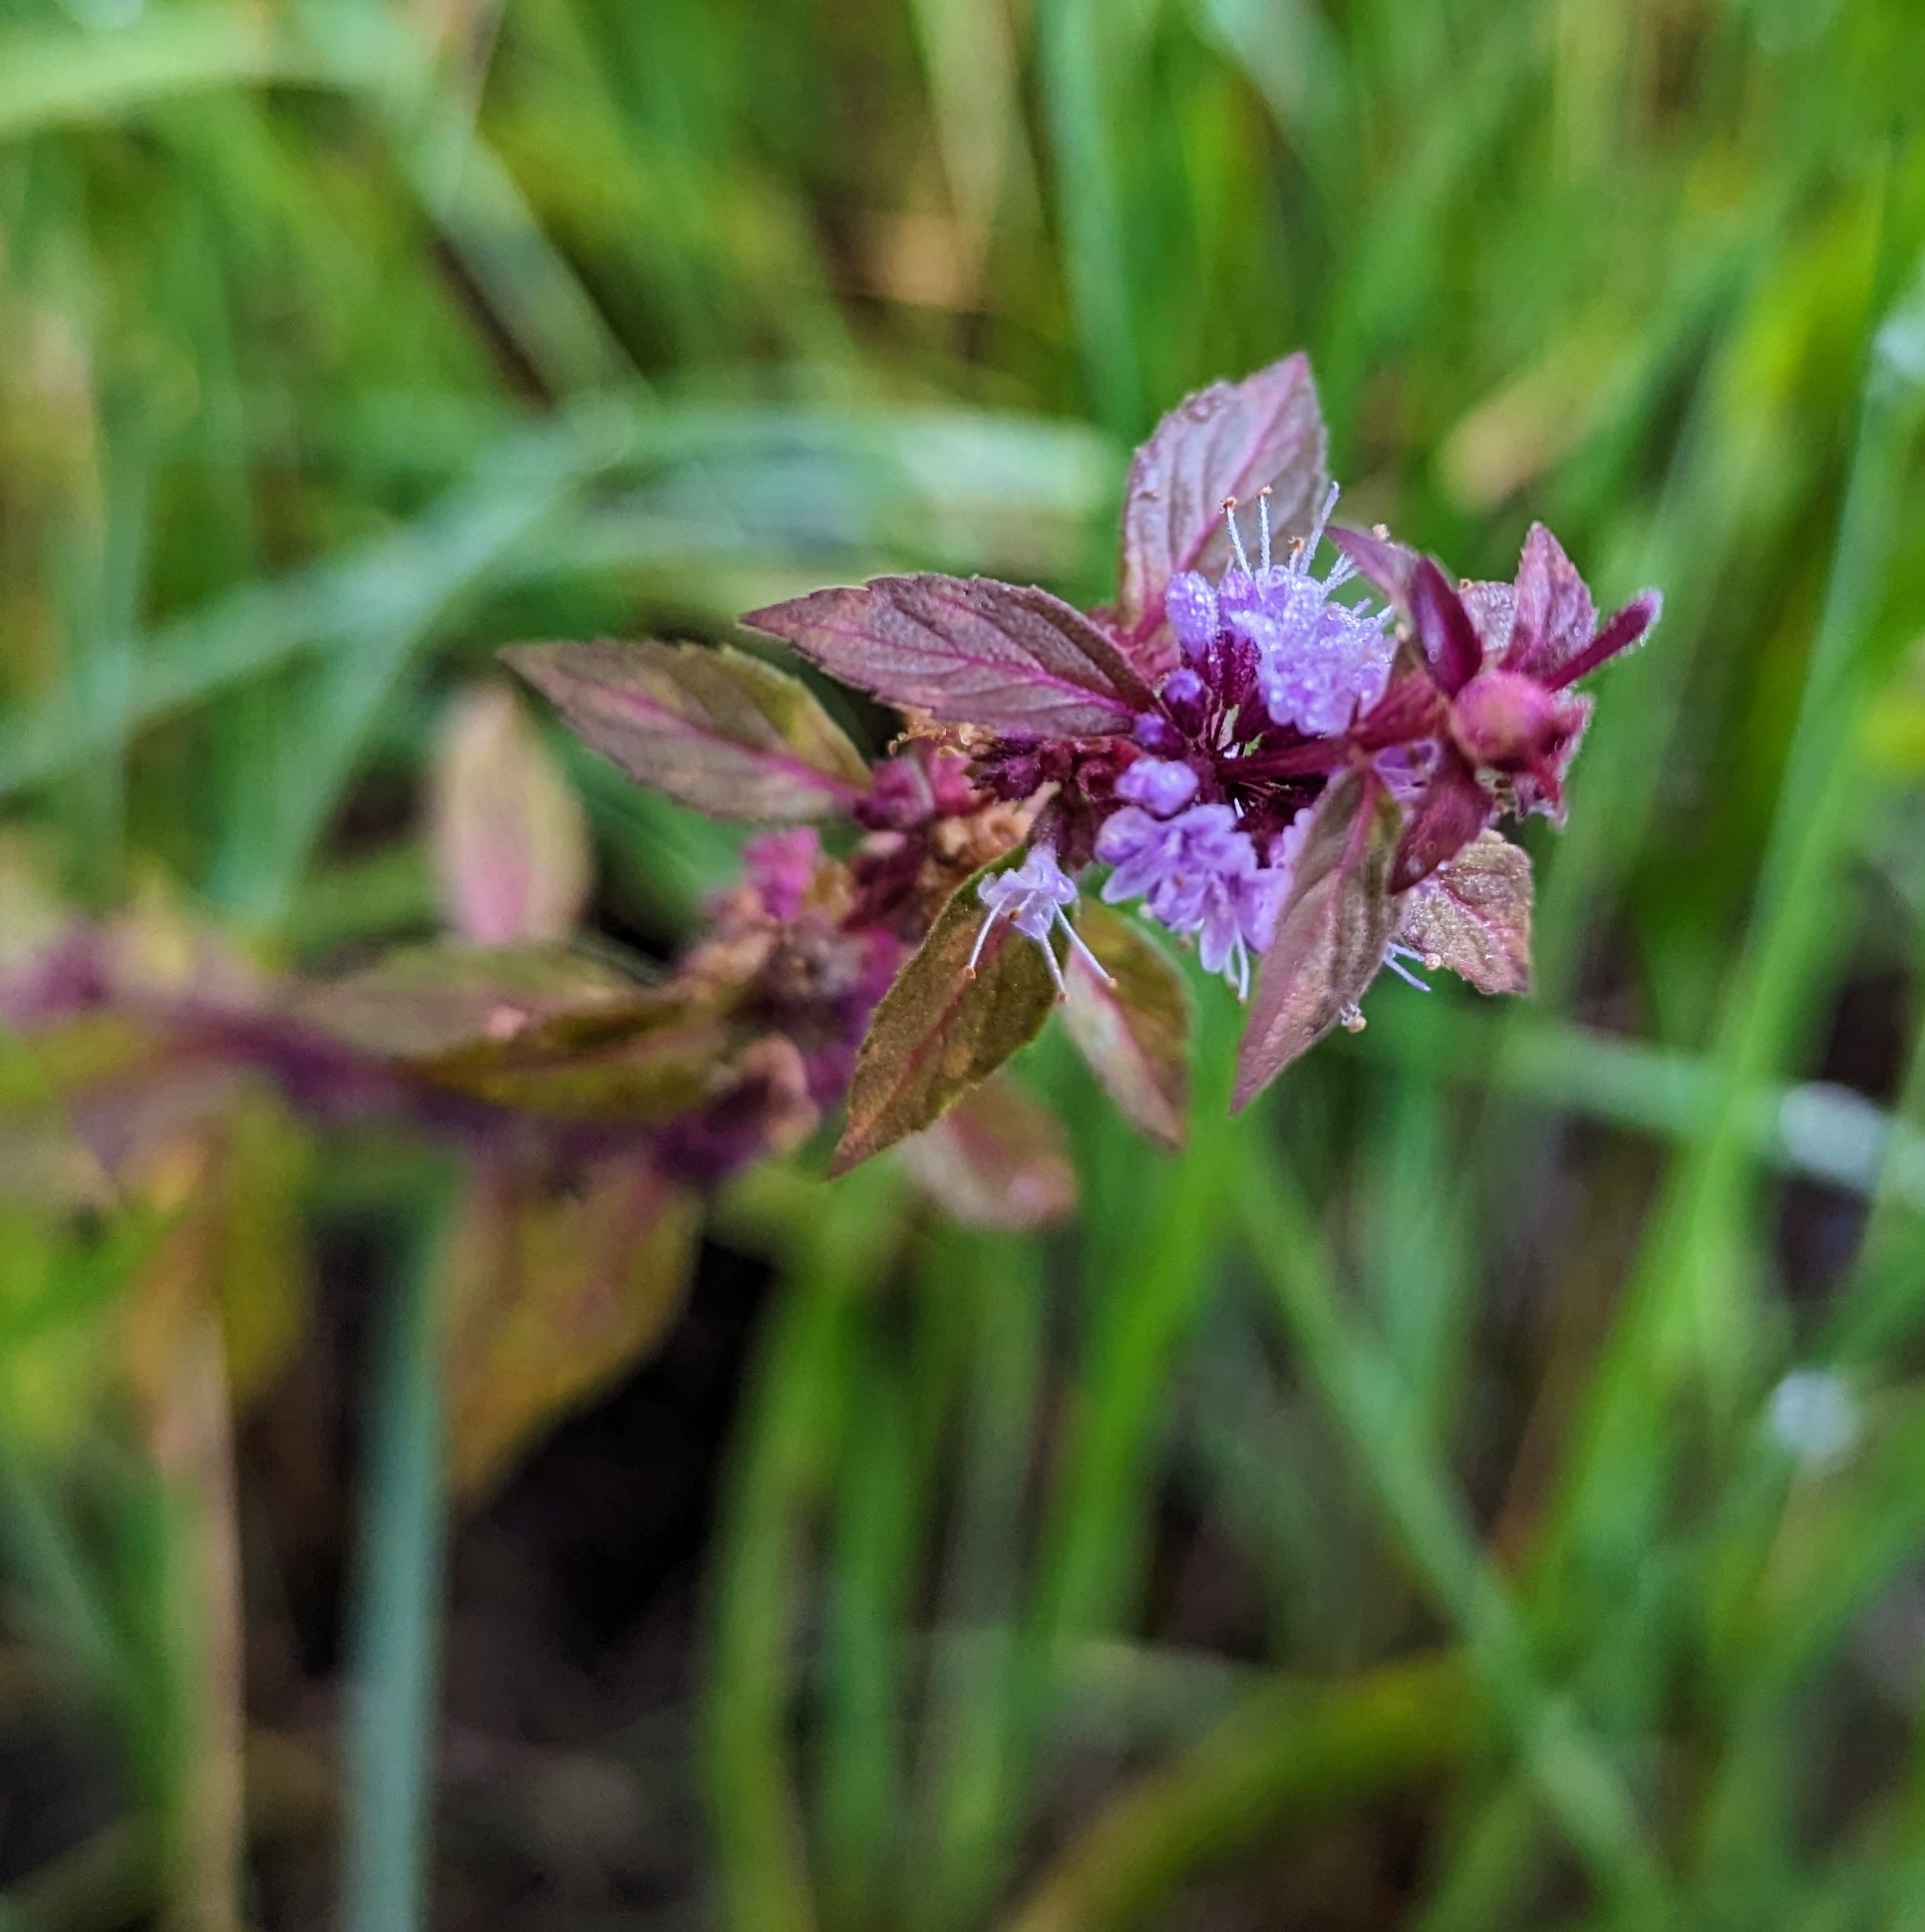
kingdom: Plantae
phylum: Tracheophyta
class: Magnoliopsida
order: Lamiales
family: Lamiaceae
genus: Mentha
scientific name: Mentha canadensis
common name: American corn mint
